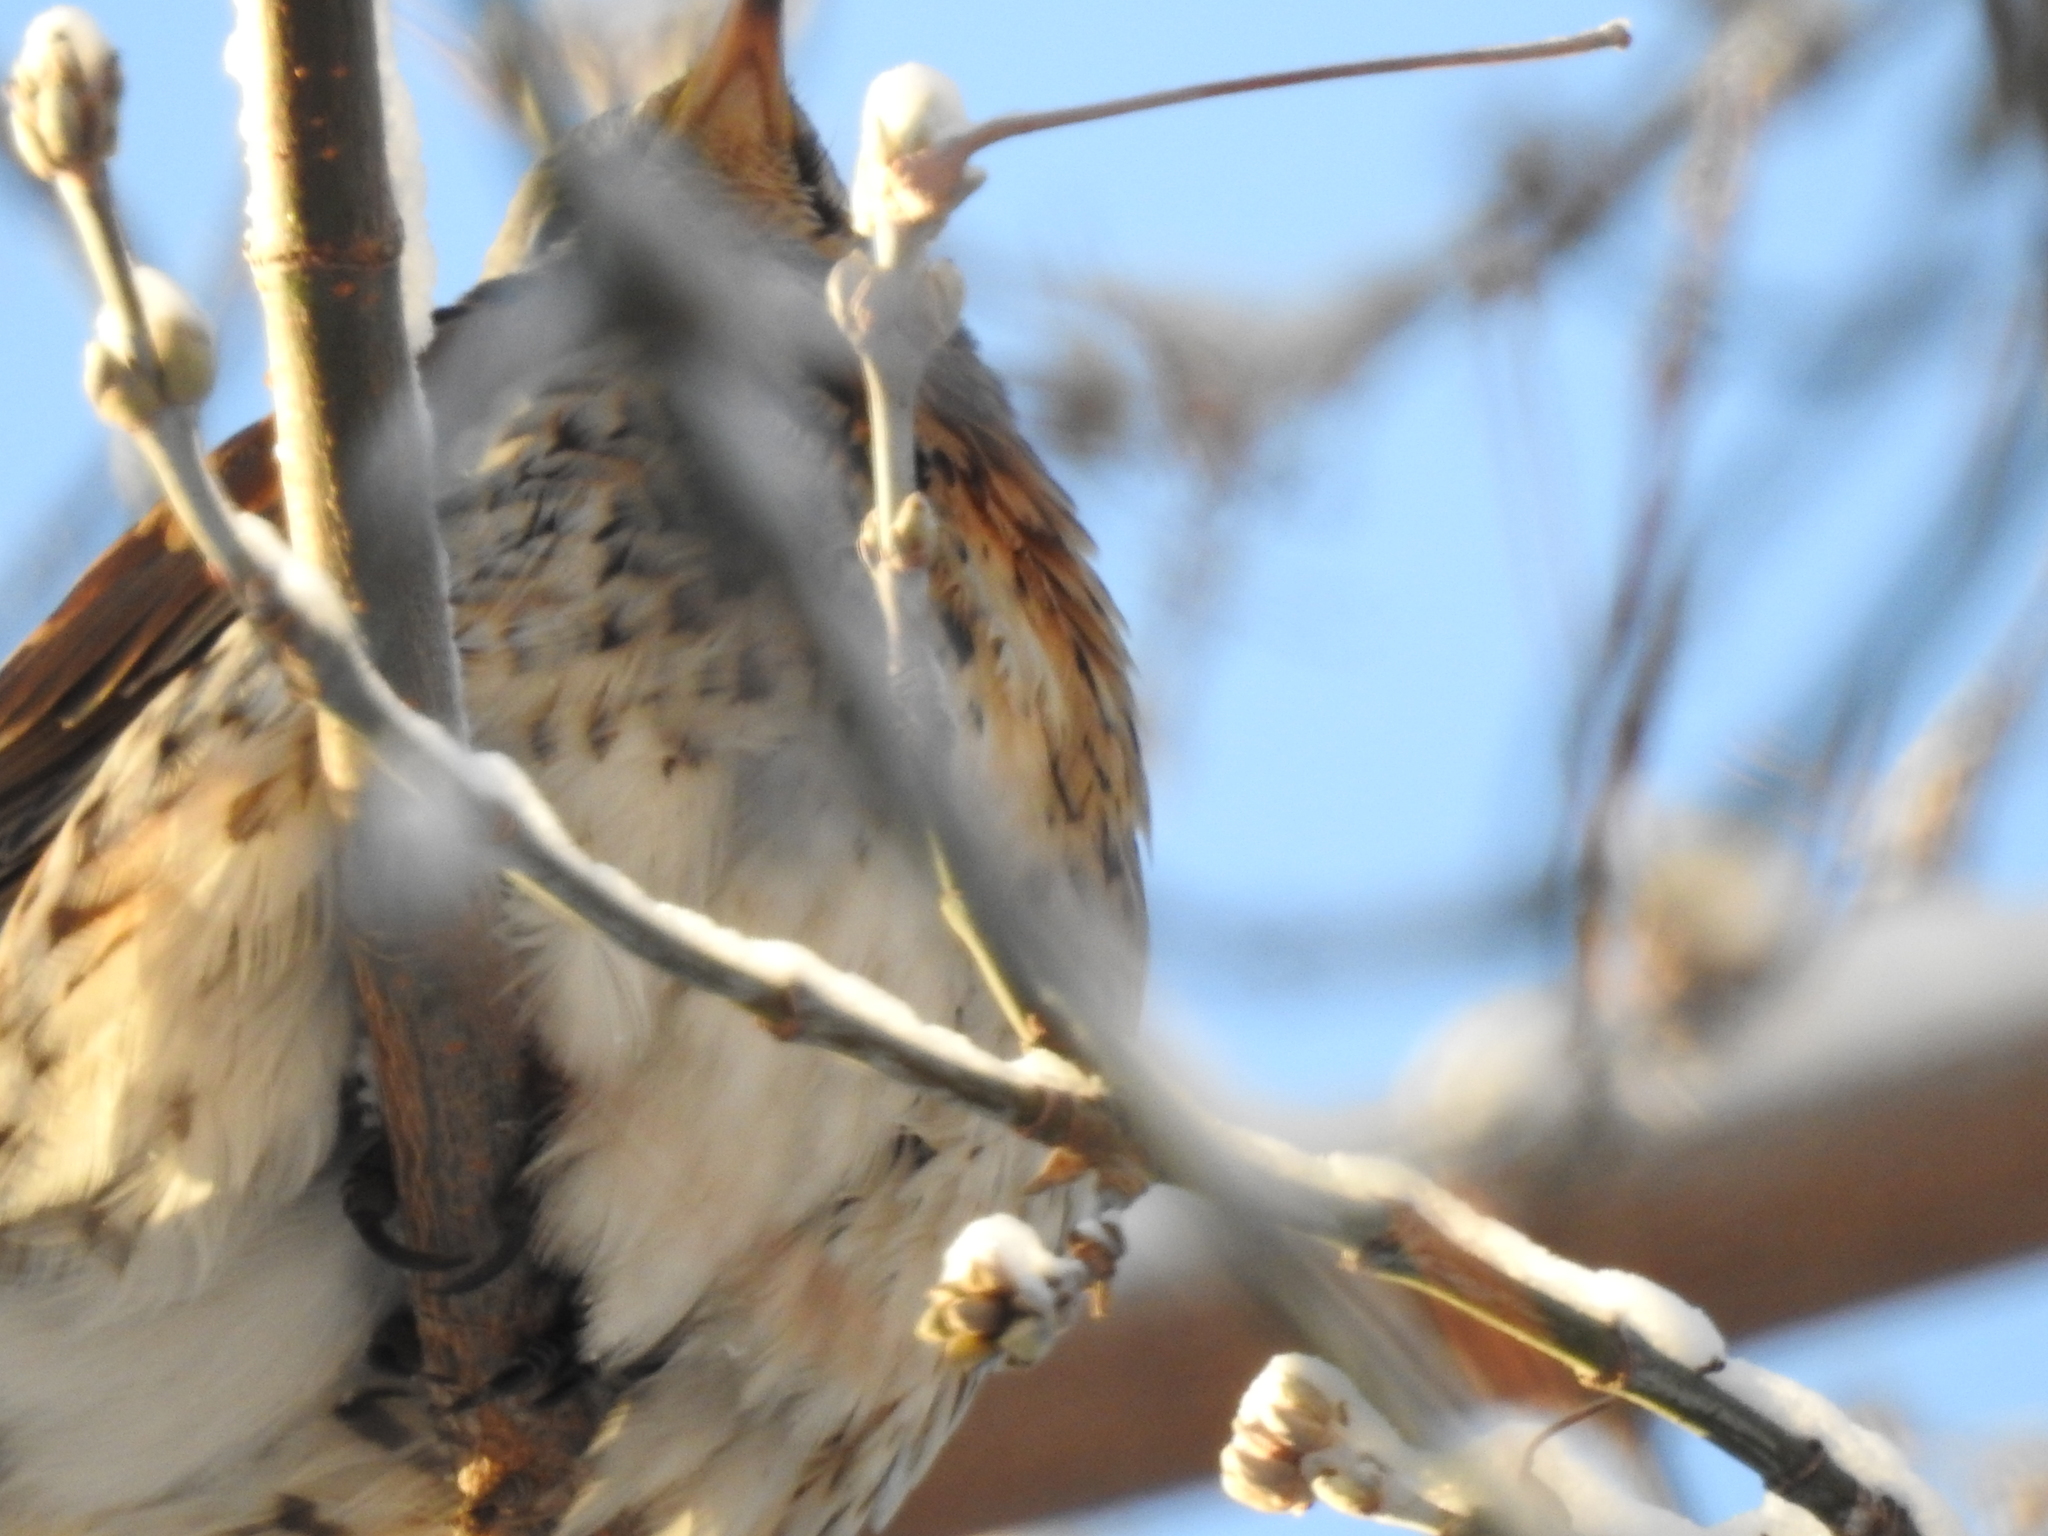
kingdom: Animalia
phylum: Chordata
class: Aves
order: Passeriformes
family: Turdidae
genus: Turdus
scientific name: Turdus pilaris
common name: Fieldfare
